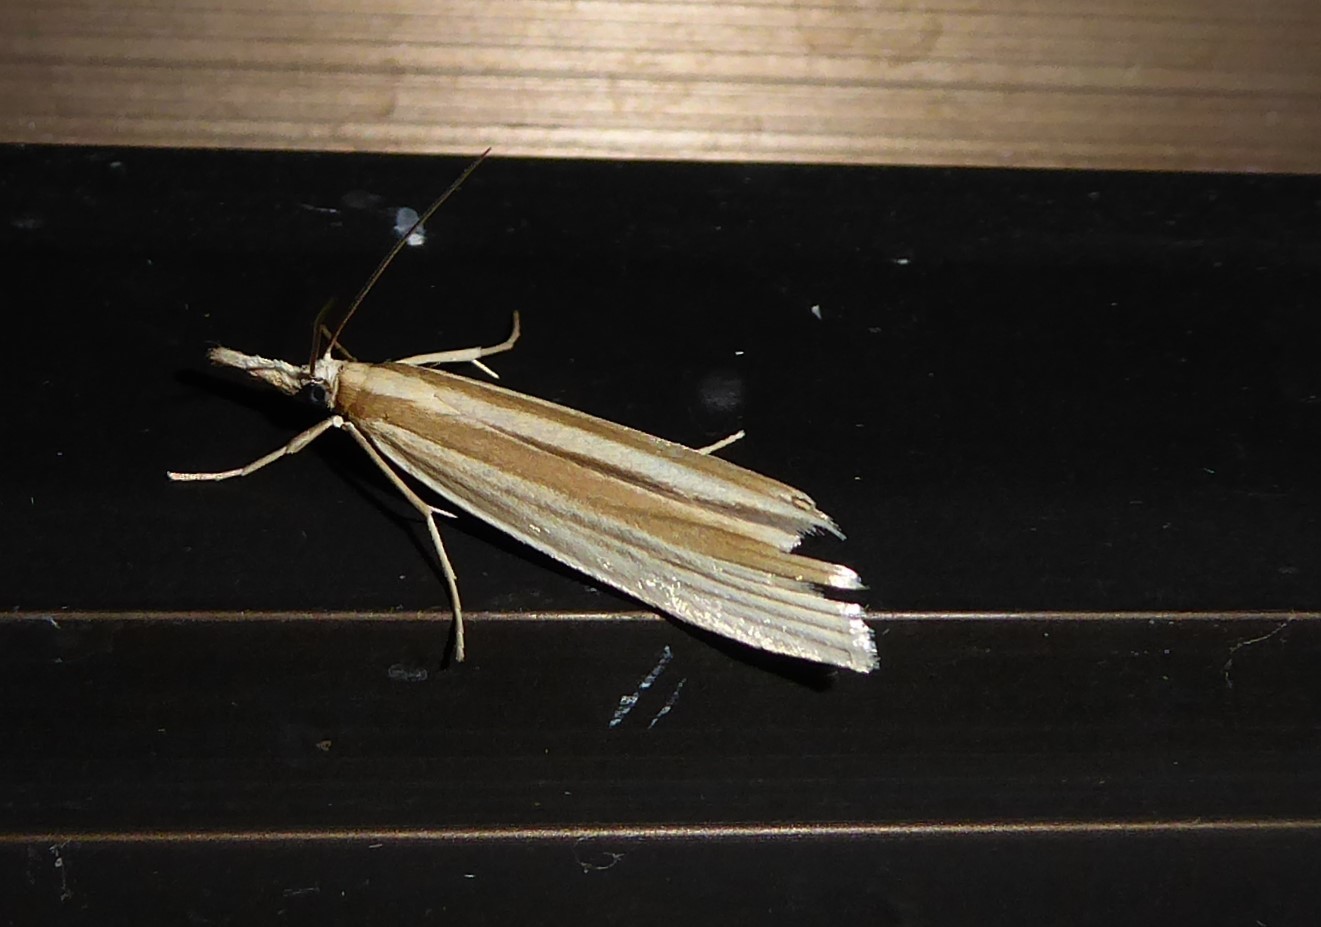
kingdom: Animalia
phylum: Arthropoda
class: Insecta
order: Lepidoptera
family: Crambidae
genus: Orocrambus
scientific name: Orocrambus angustipennis
